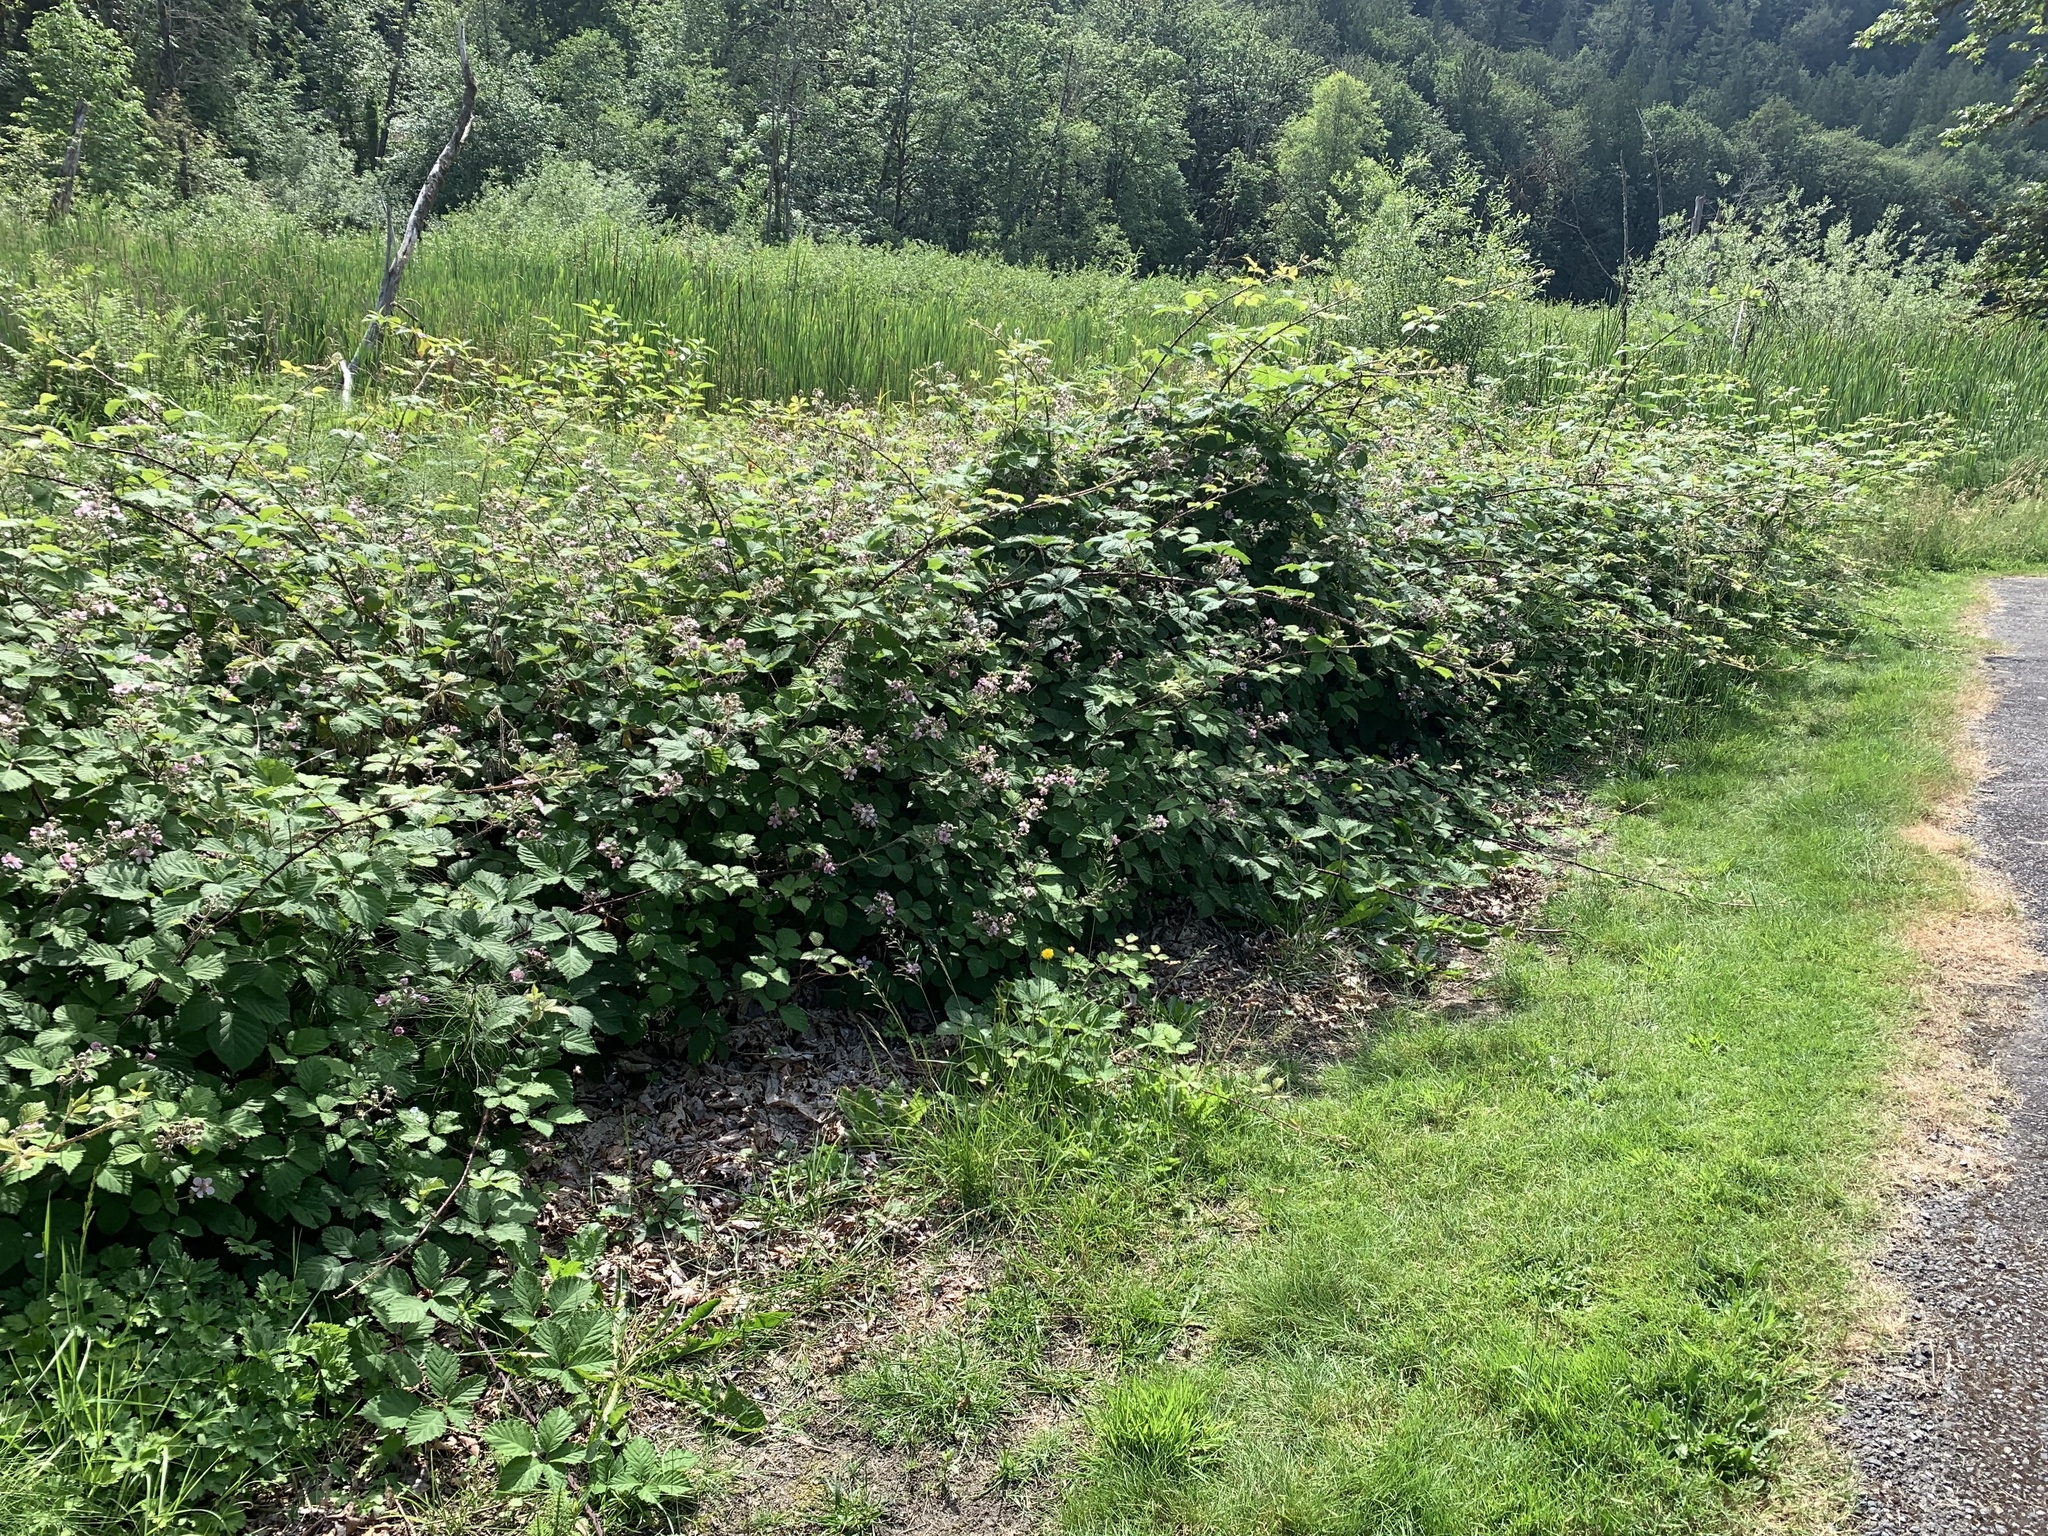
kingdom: Plantae
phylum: Tracheophyta
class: Magnoliopsida
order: Rosales
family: Rosaceae
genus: Rubus
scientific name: Rubus vestitus
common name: European blackberry
